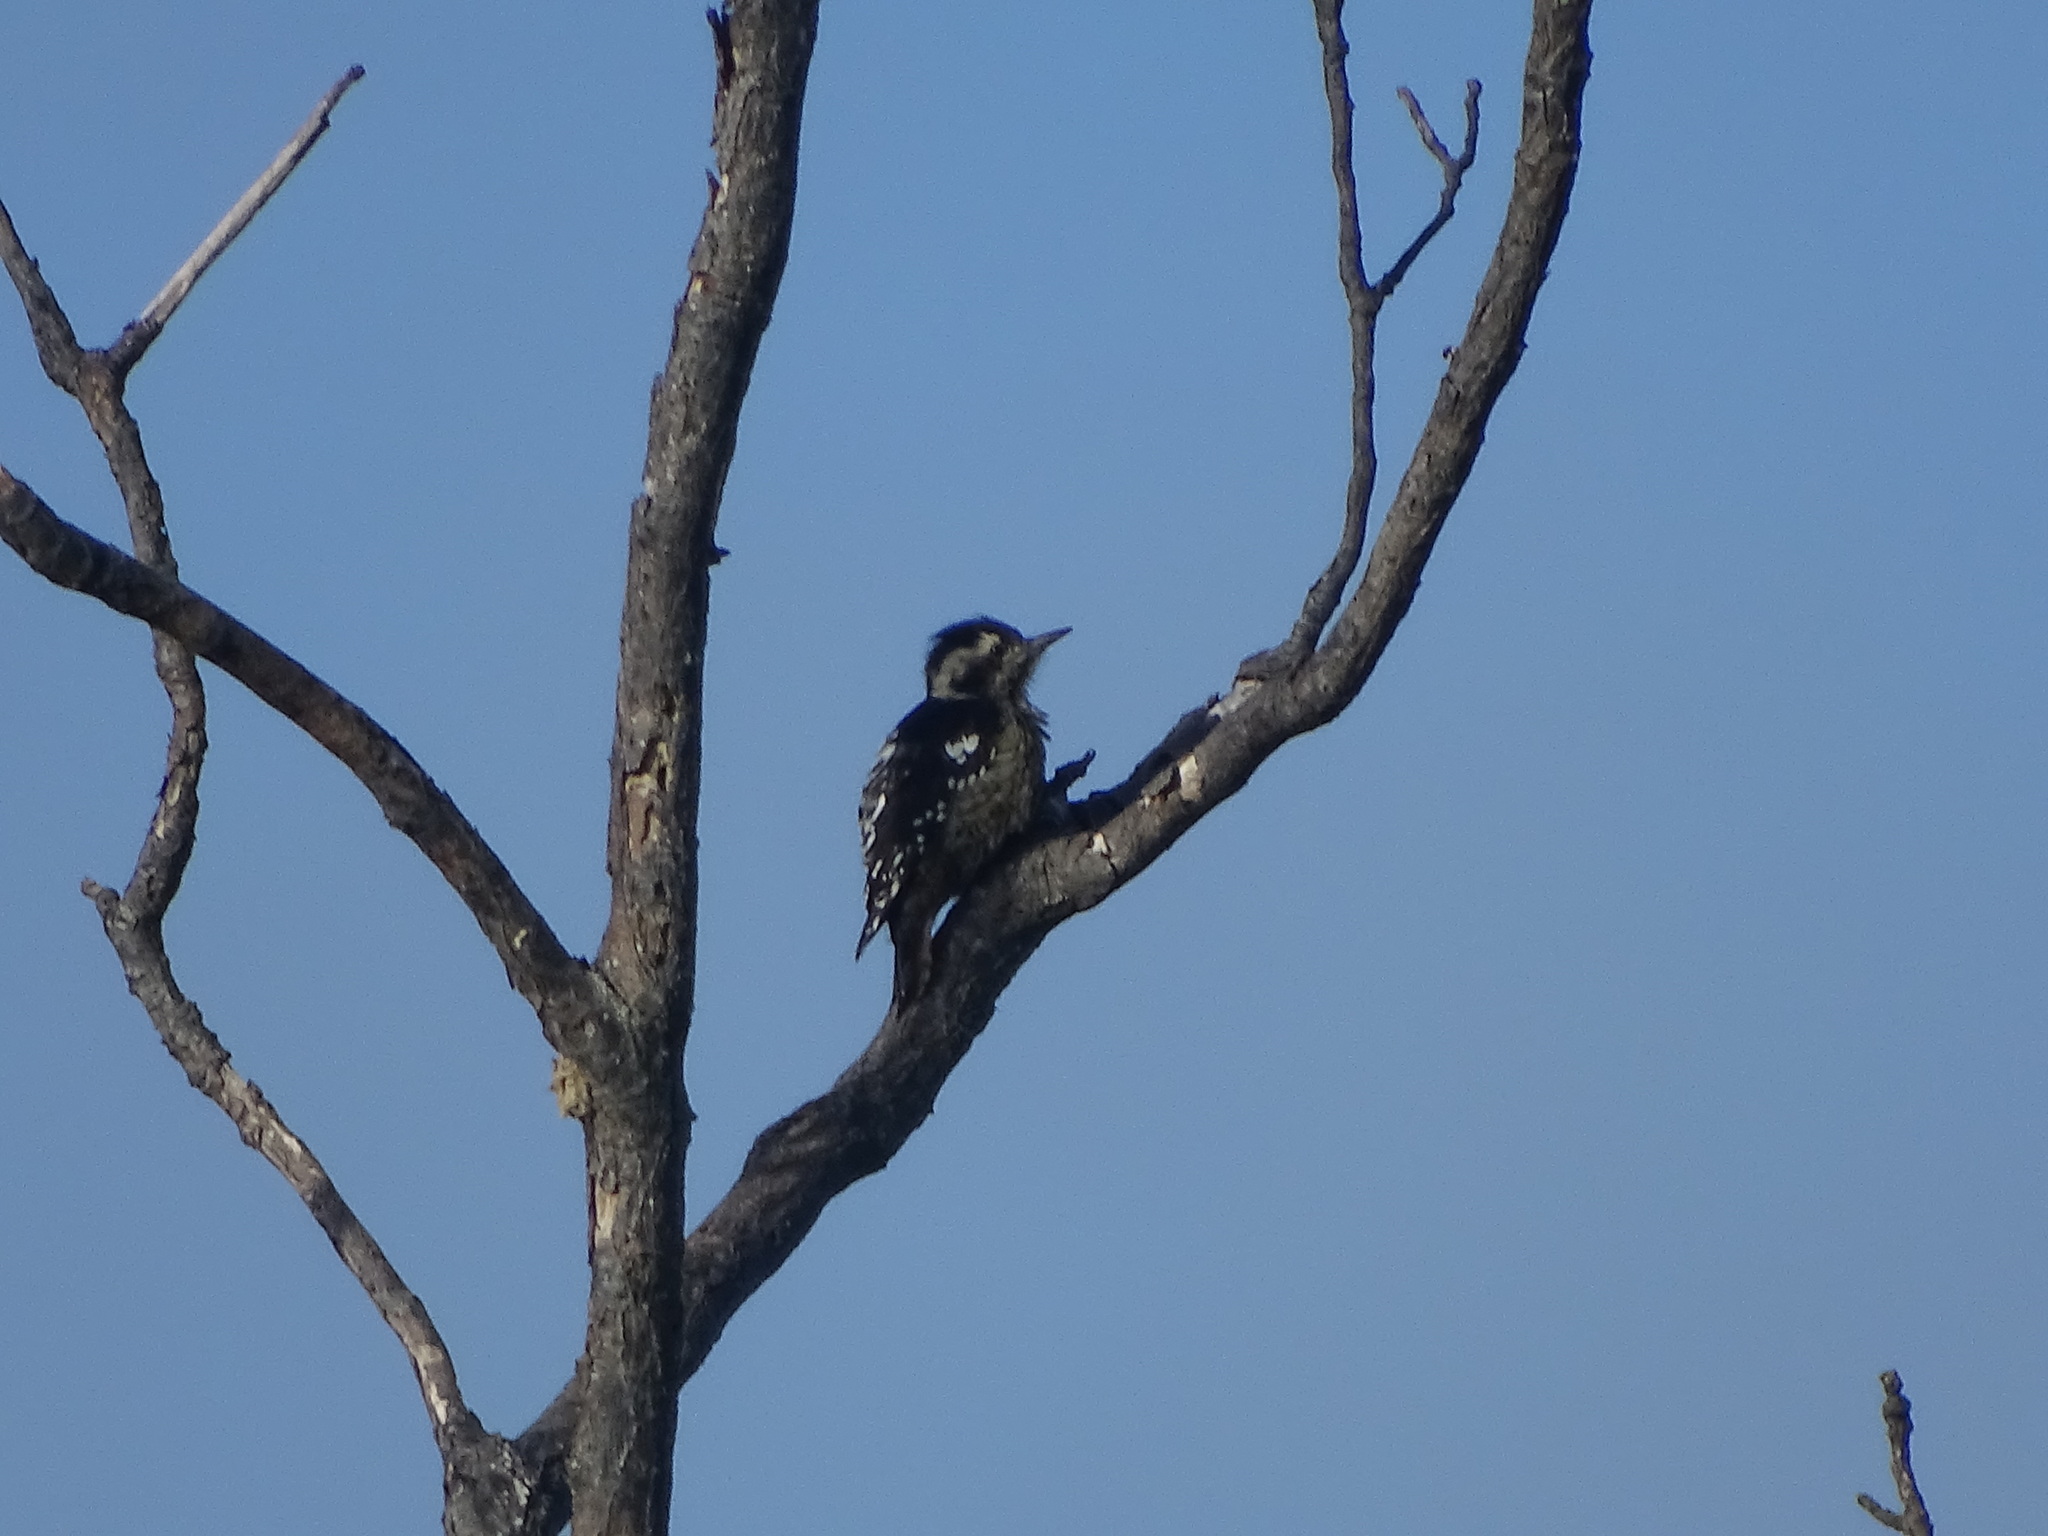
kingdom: Animalia
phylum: Chordata
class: Aves
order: Piciformes
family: Picidae
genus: Yungipicus
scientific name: Yungipicus canicapillus
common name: Grey-capped pygmy woodpecker
